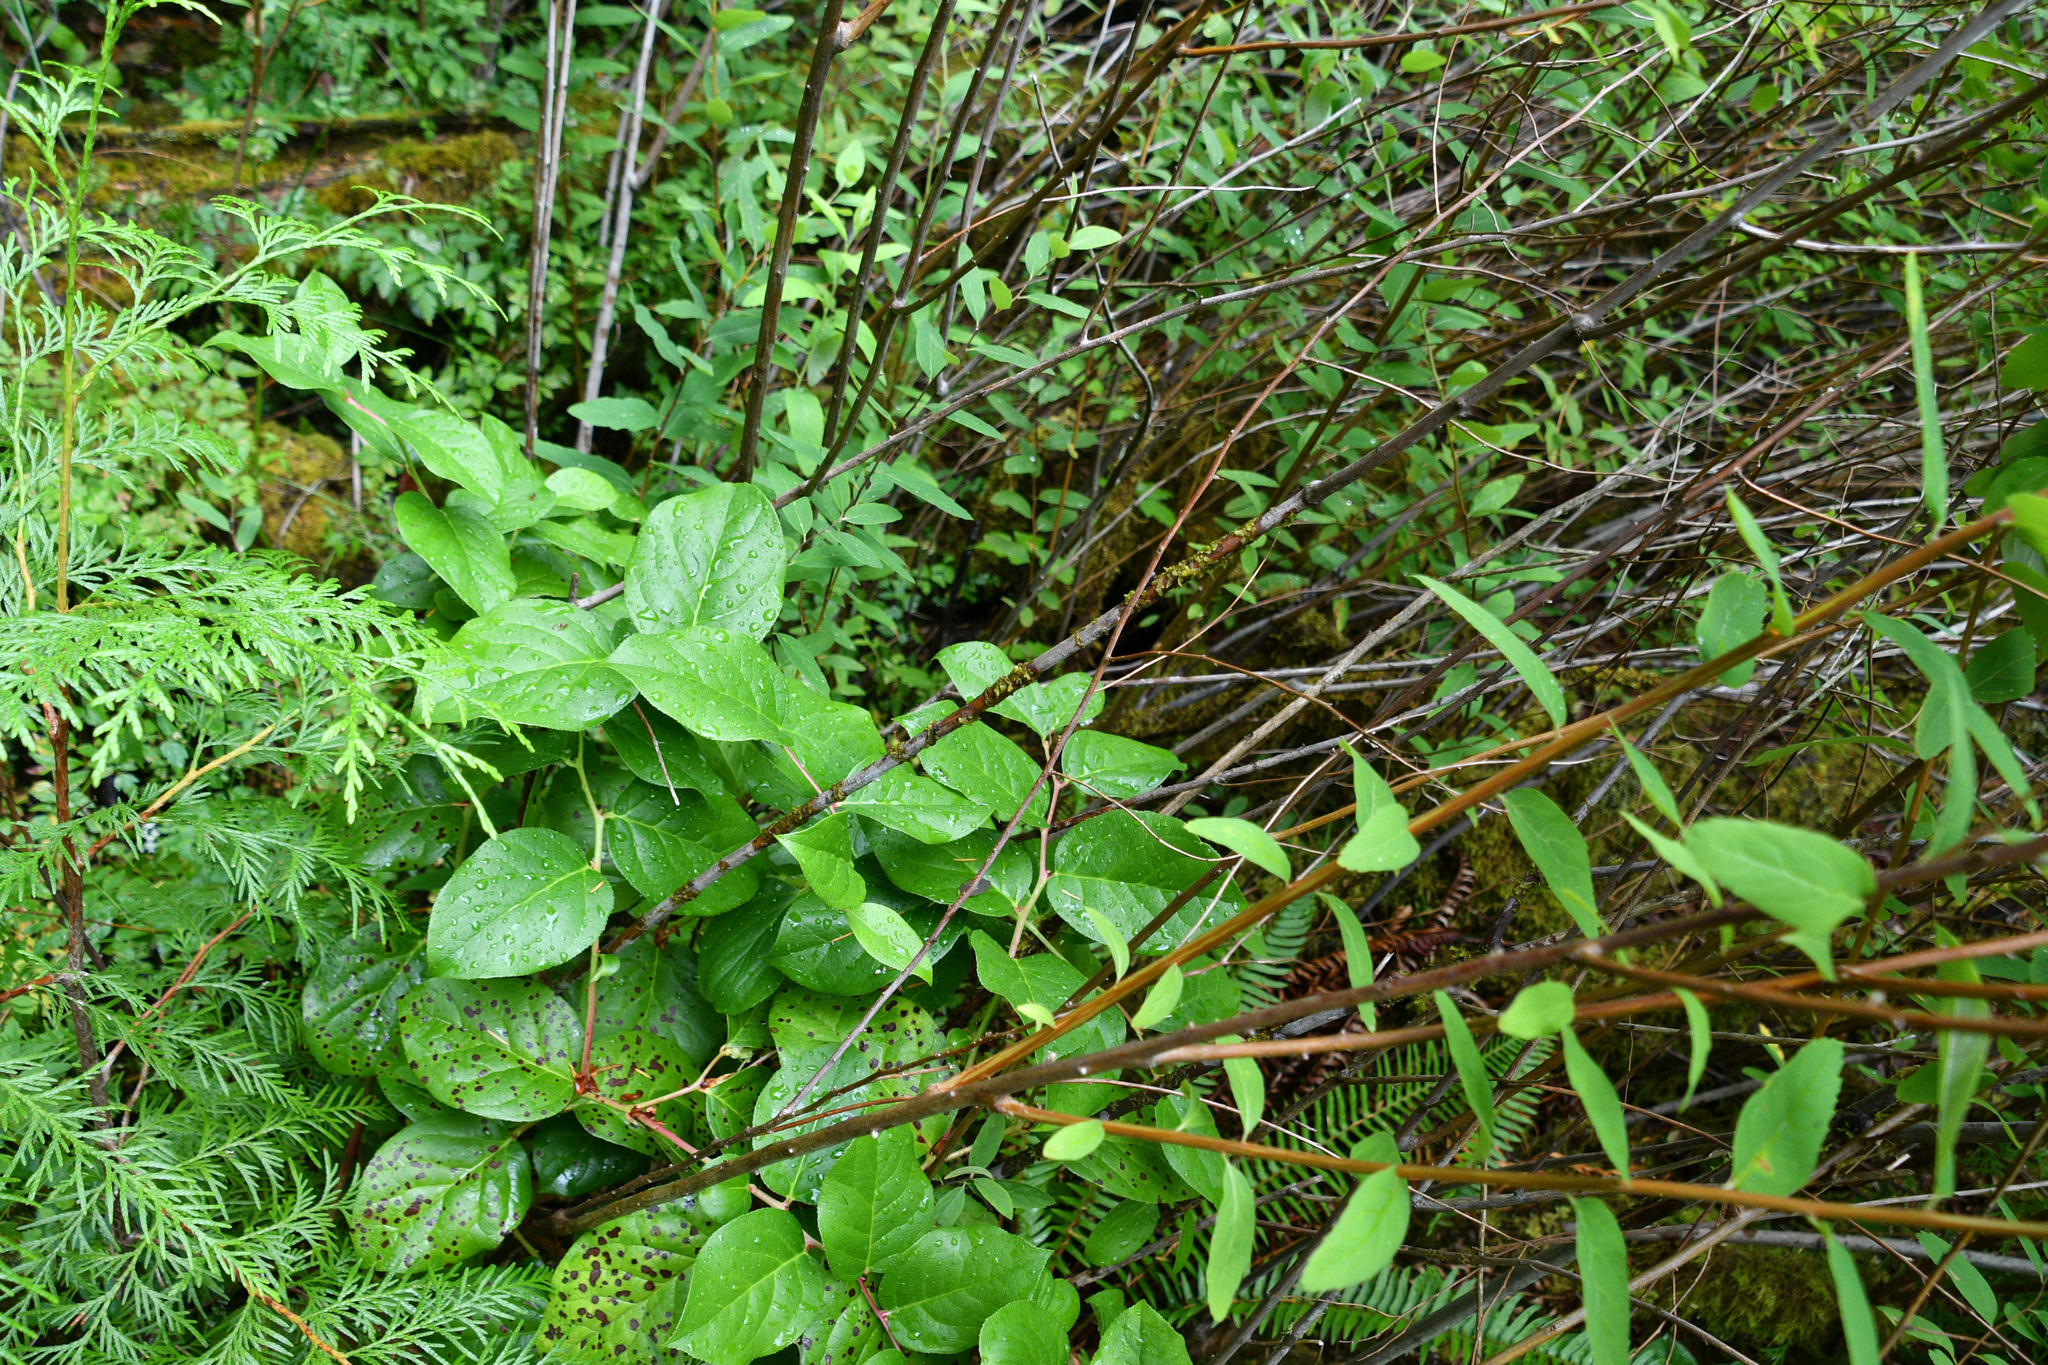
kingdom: Plantae
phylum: Tracheophyta
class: Magnoliopsida
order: Ericales
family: Ericaceae
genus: Gaultheria
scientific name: Gaultheria shallon
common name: Shallon
